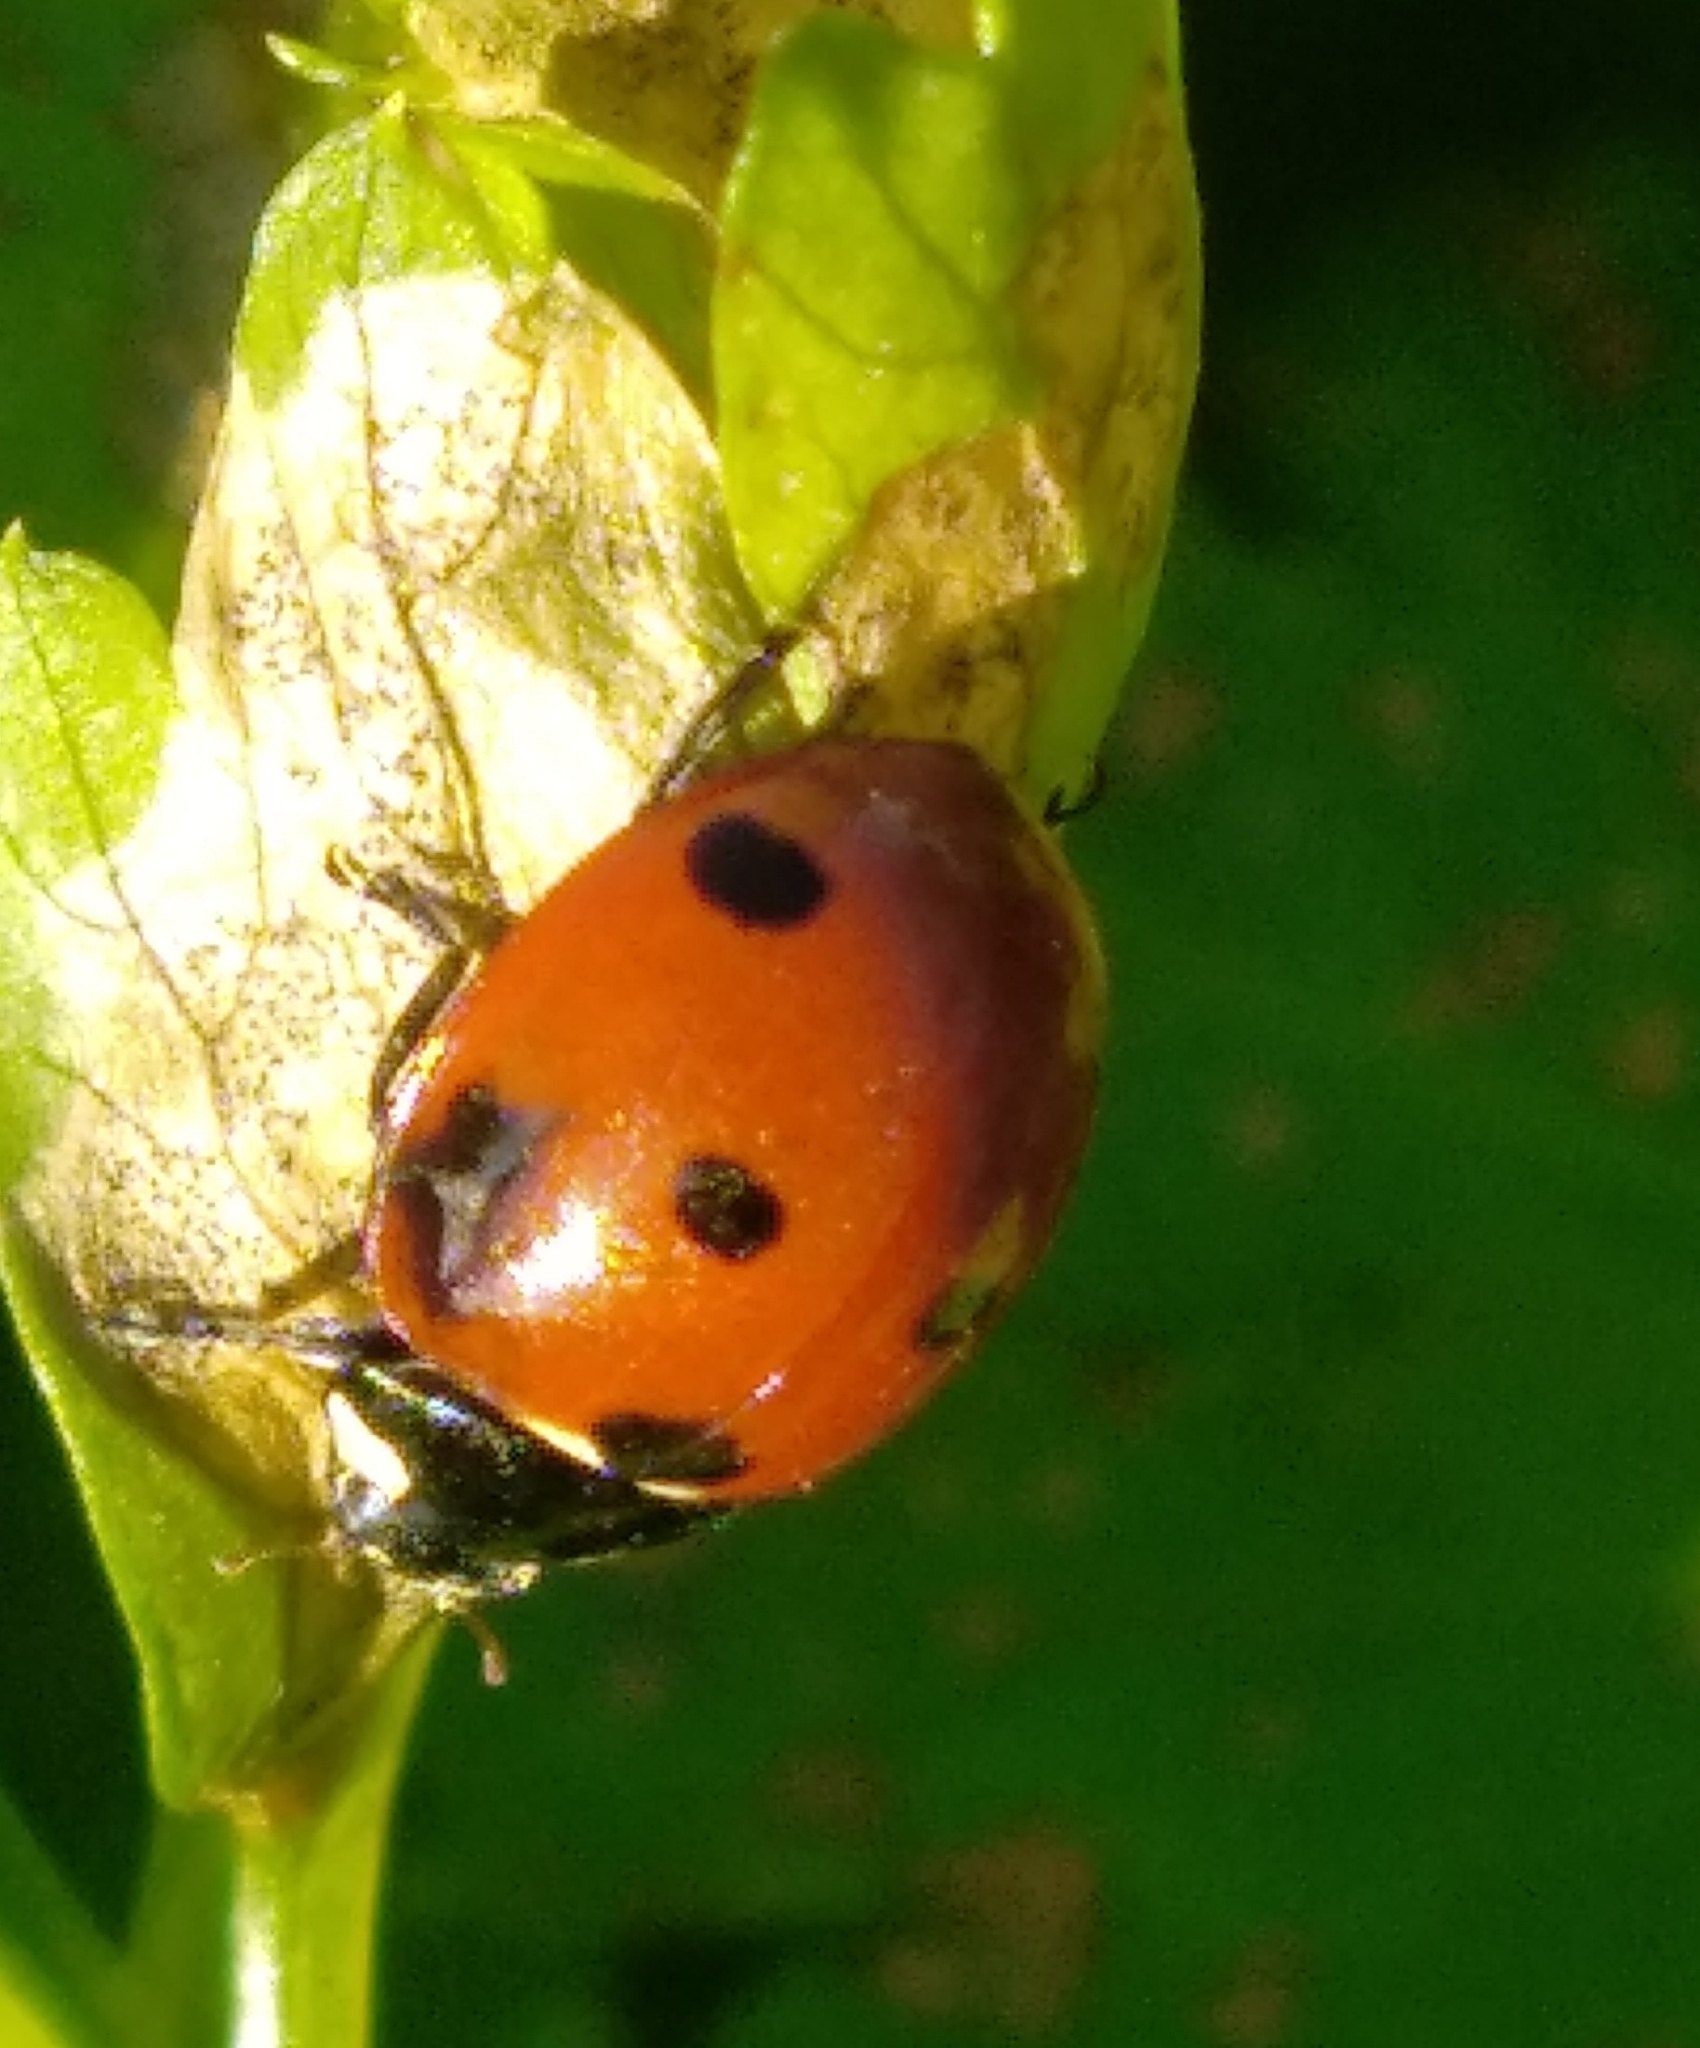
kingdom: Animalia
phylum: Arthropoda
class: Insecta
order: Coleoptera
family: Coccinellidae
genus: Coccinella
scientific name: Coccinella septempunctata
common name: Sevenspotted lady beetle
